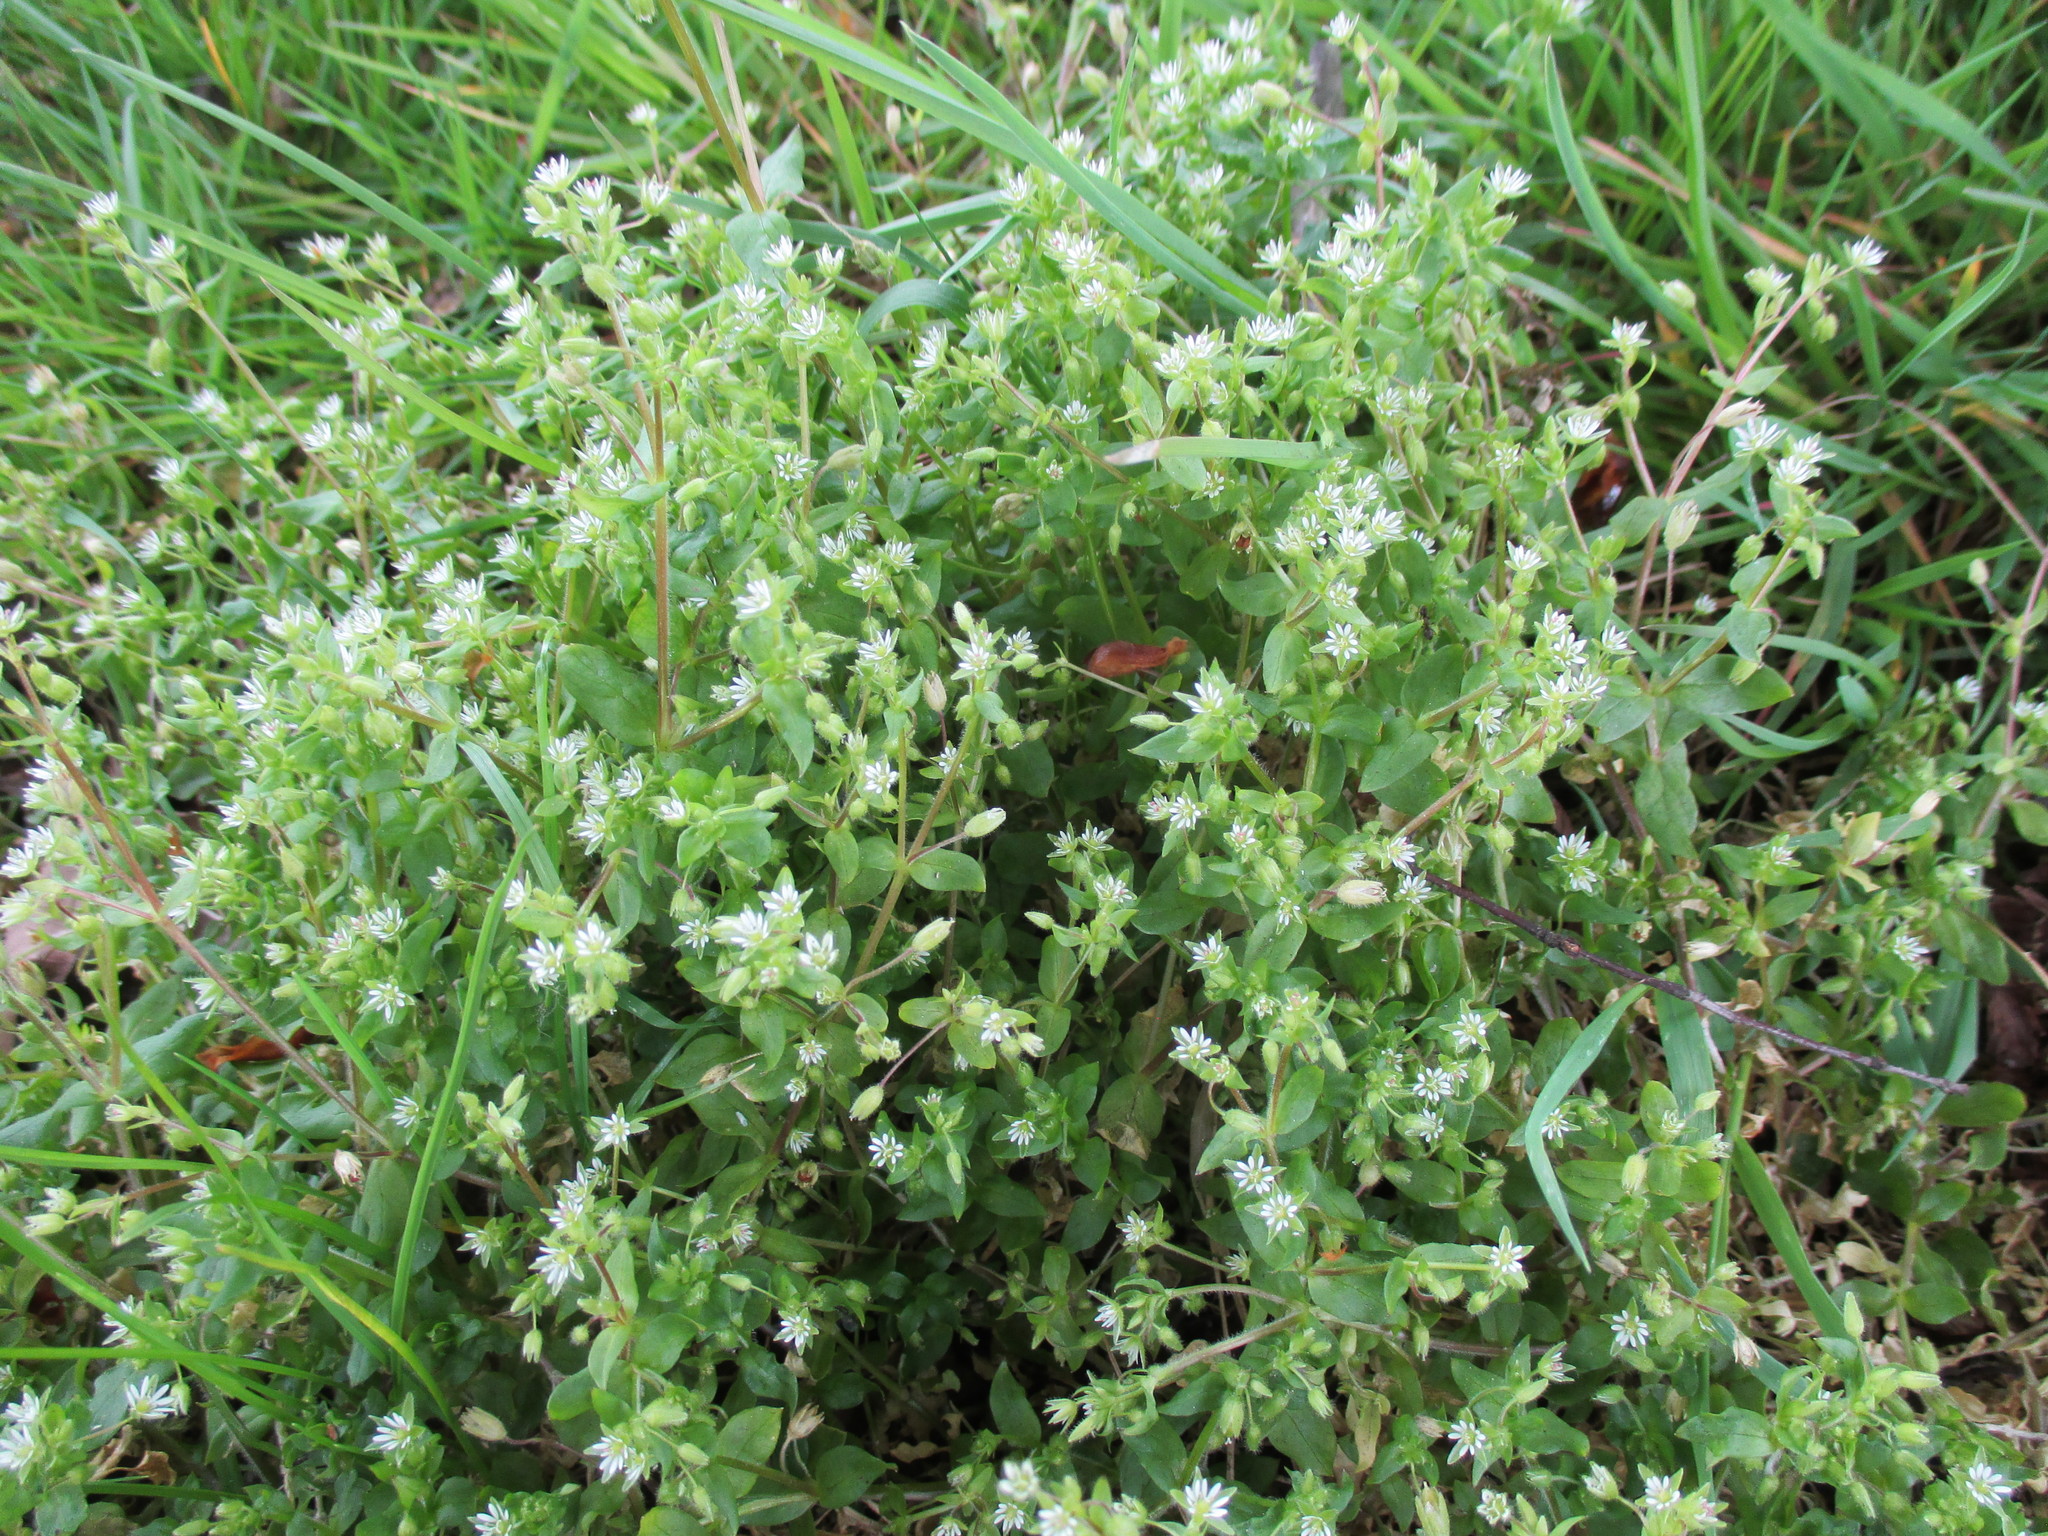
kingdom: Plantae
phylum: Tracheophyta
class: Magnoliopsida
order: Caryophyllales
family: Caryophyllaceae
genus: Stellaria
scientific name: Stellaria media
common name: Common chickweed
